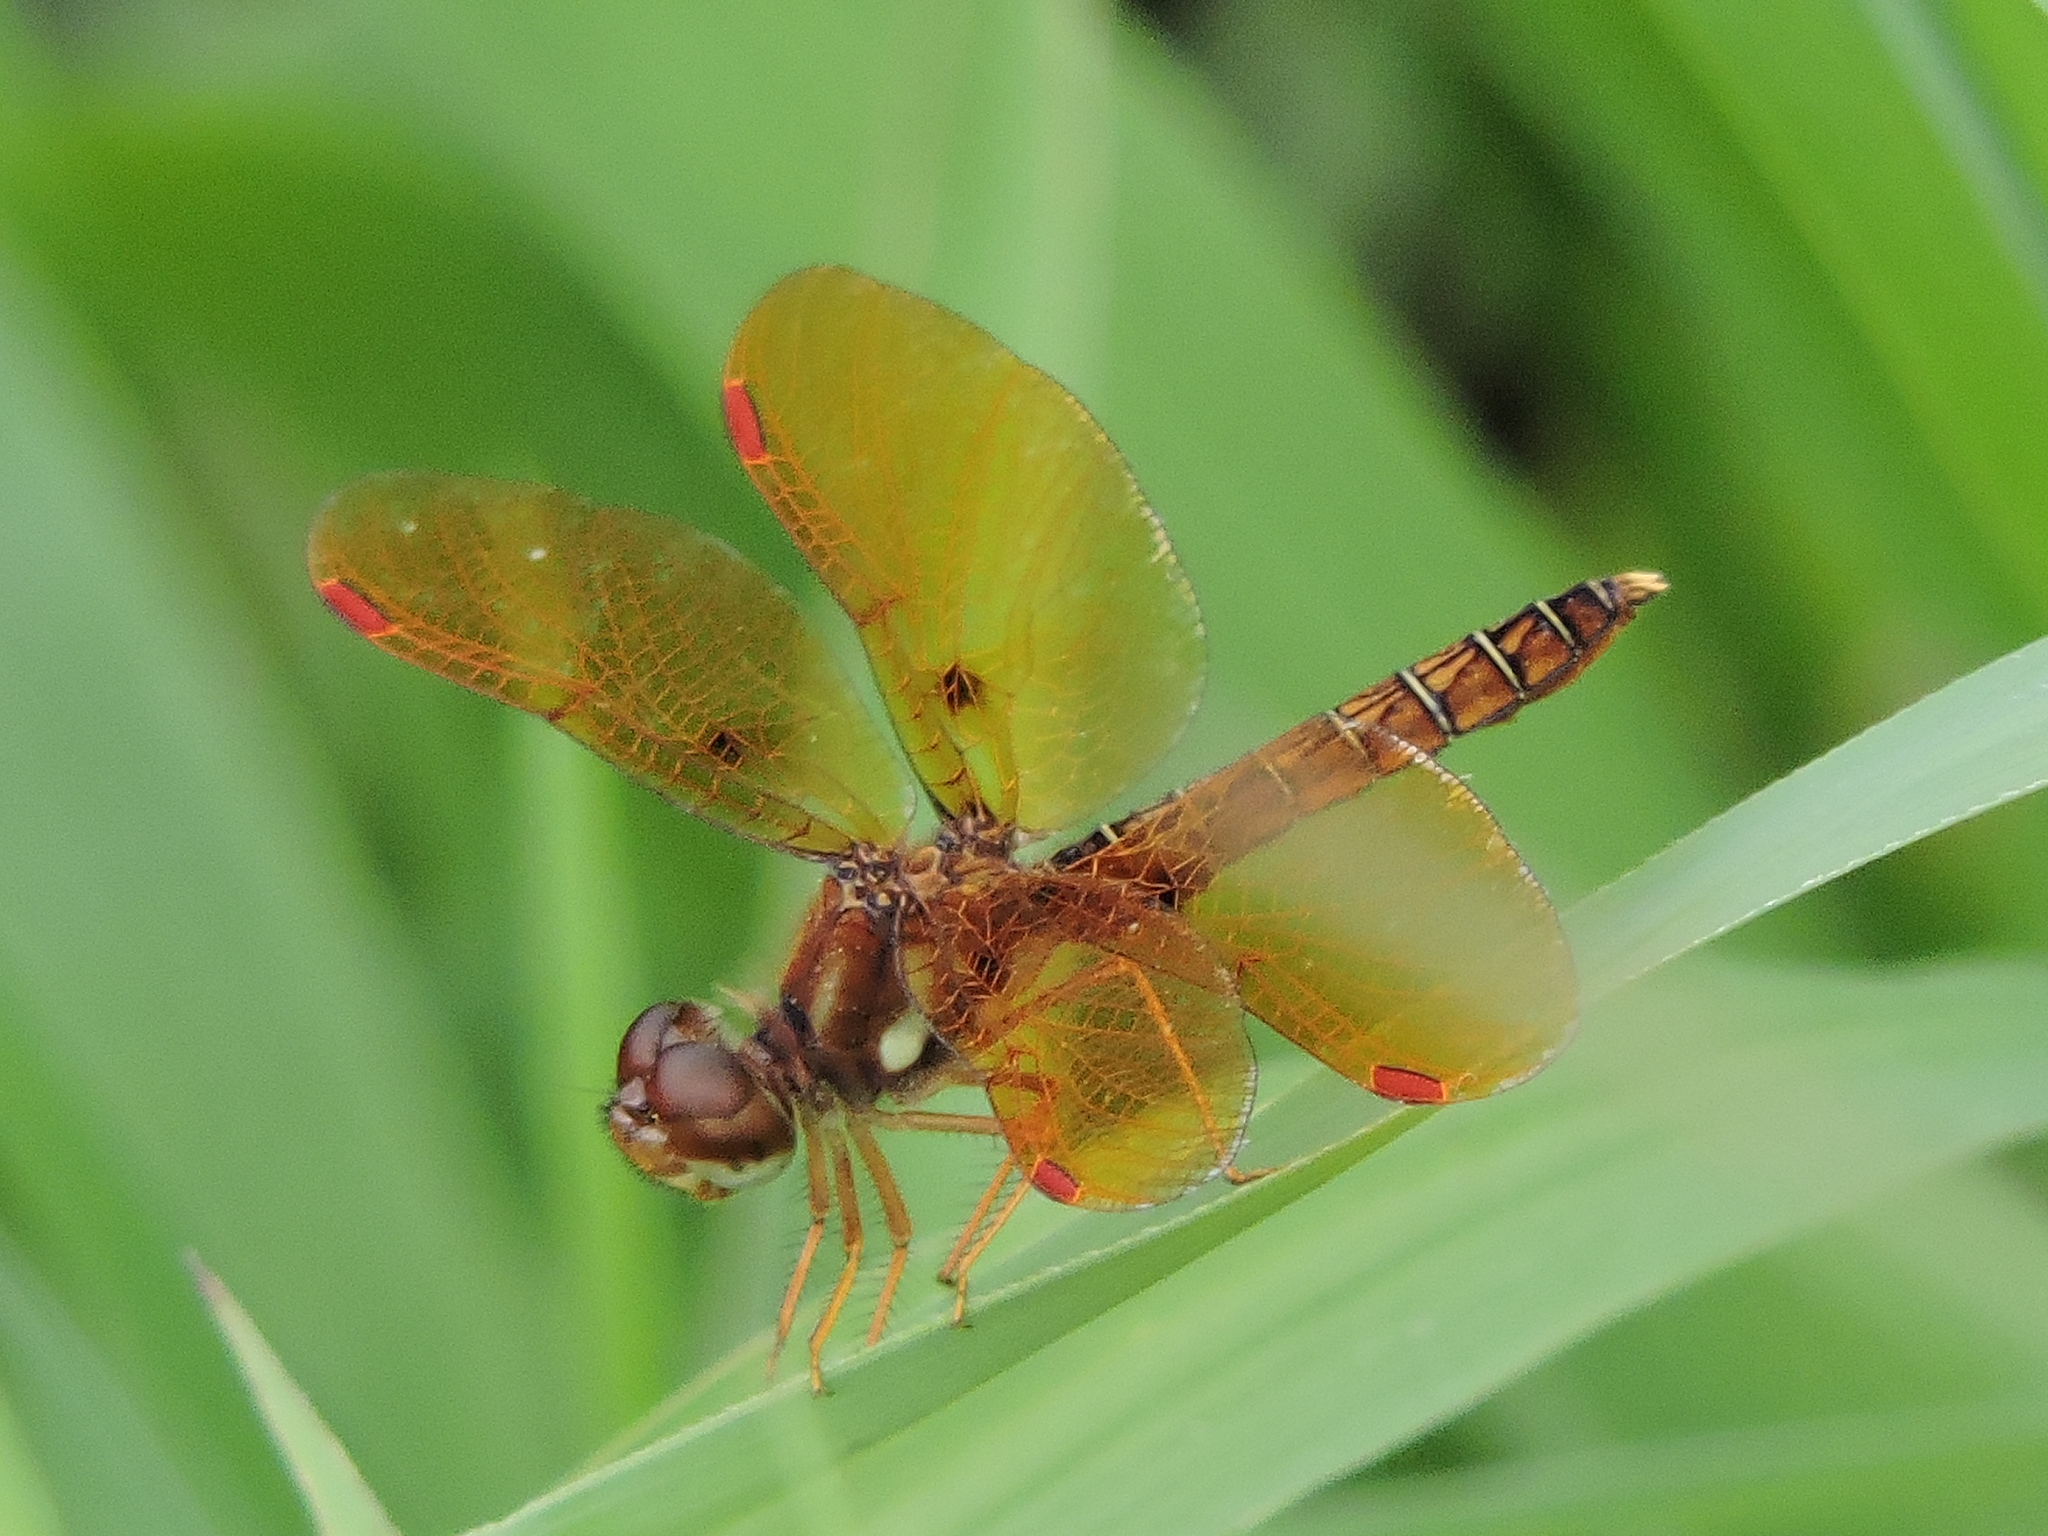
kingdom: Animalia
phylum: Arthropoda
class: Insecta
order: Odonata
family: Libellulidae
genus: Perithemis
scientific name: Perithemis tenera
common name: Eastern amberwing
